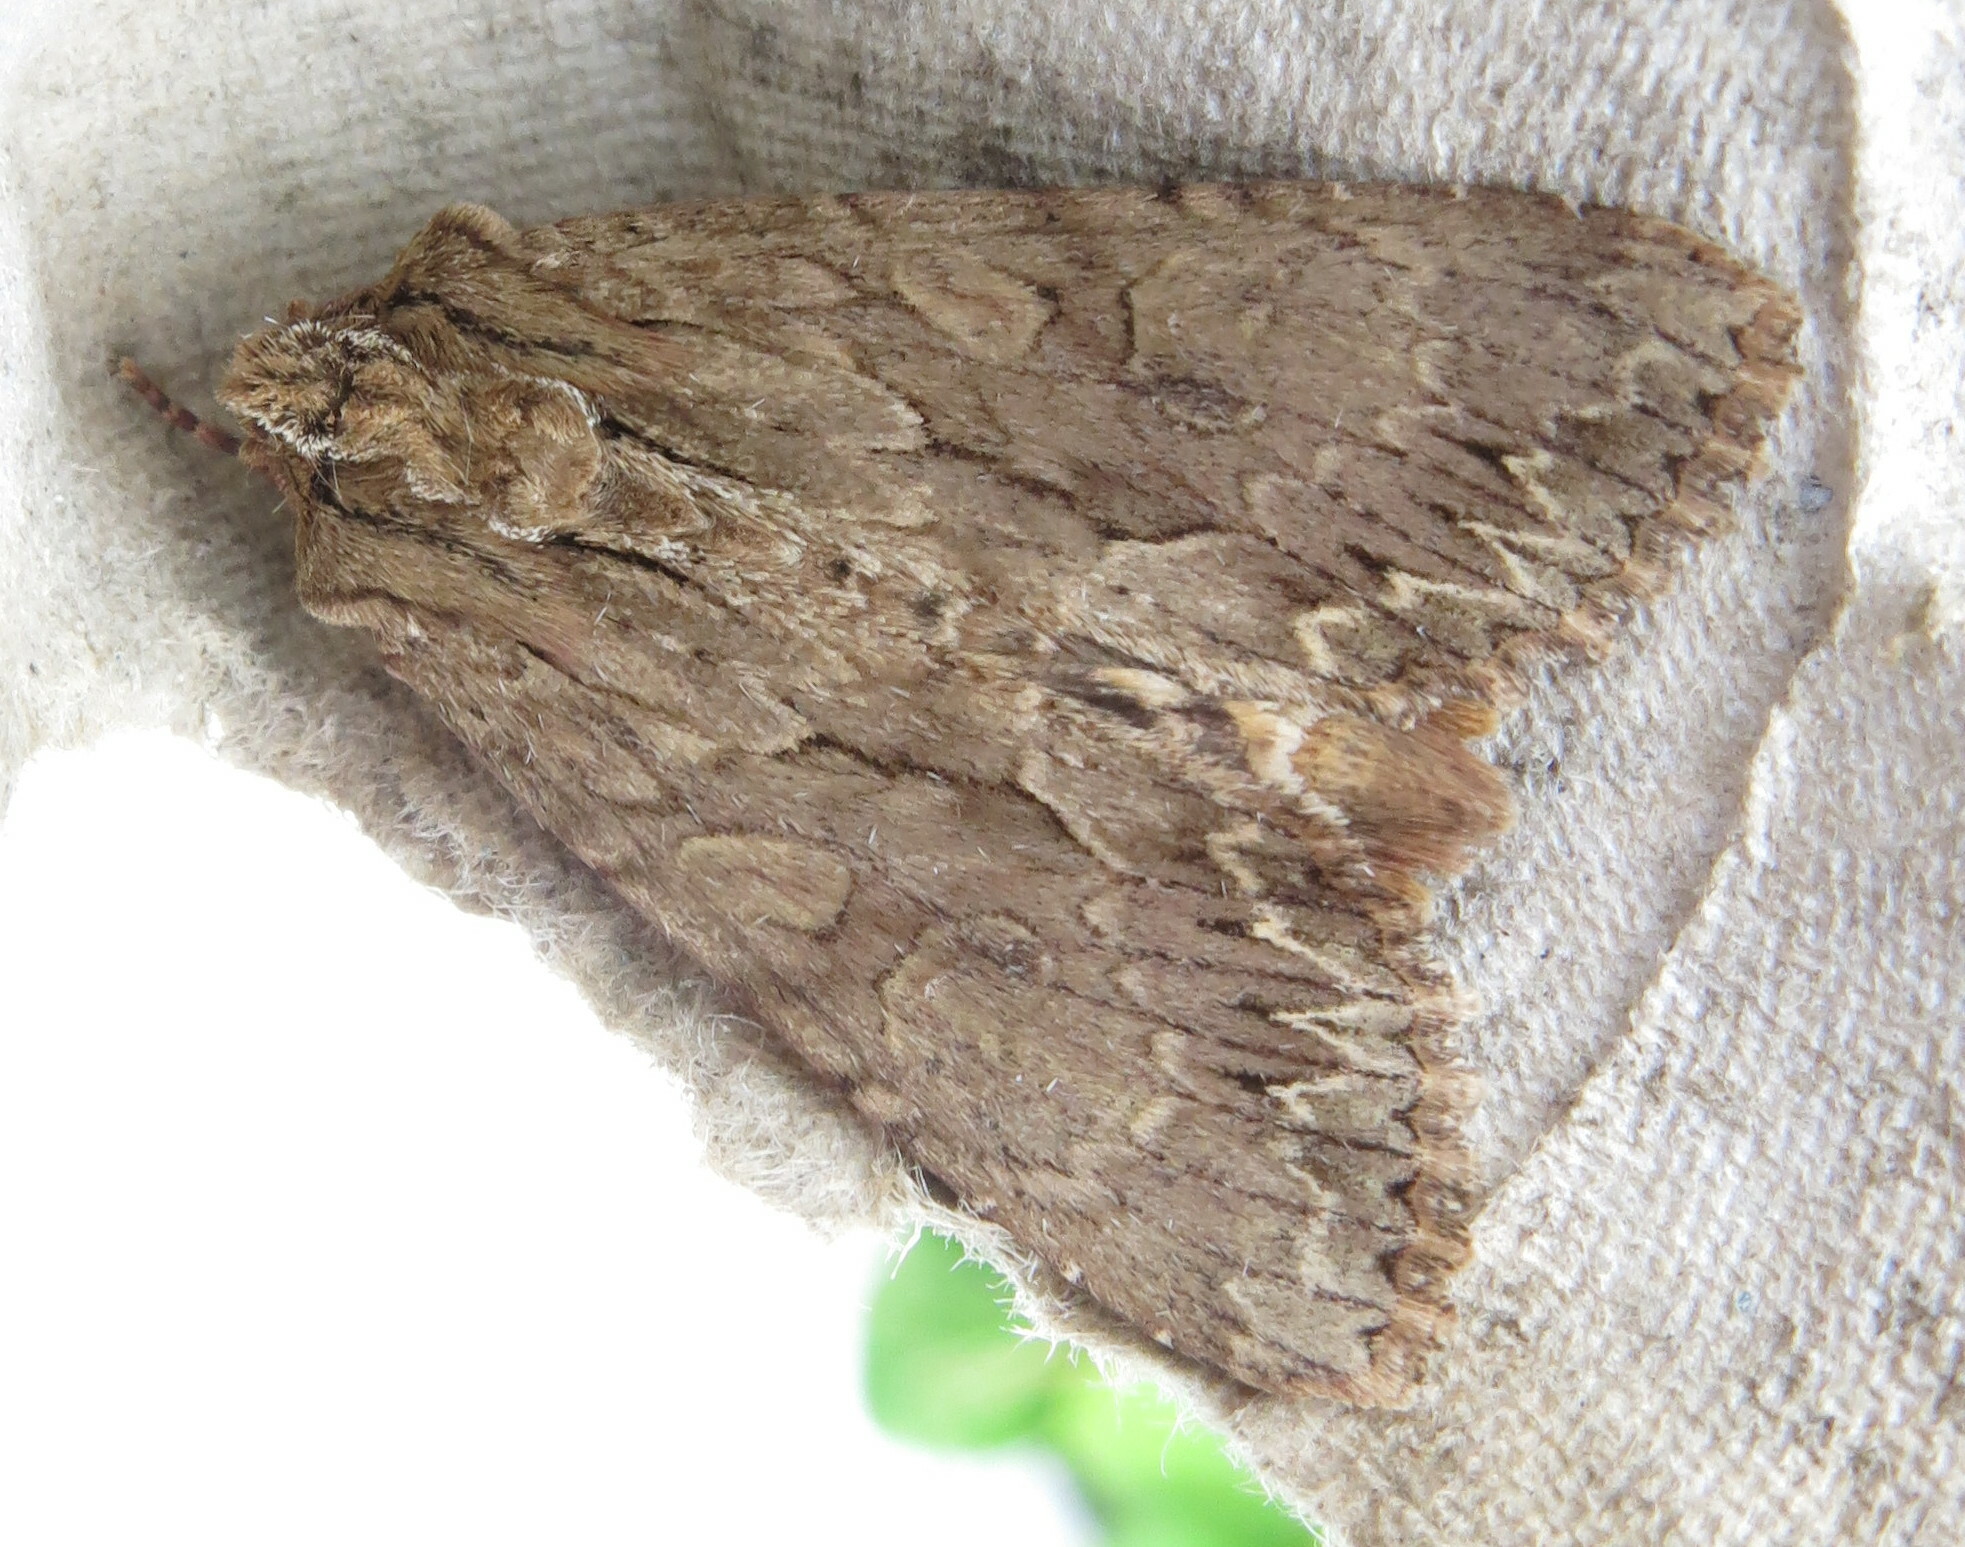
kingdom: Animalia
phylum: Arthropoda
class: Insecta
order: Lepidoptera
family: Noctuidae
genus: Apamea
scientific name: Apamea monoglypha
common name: Dark arches
